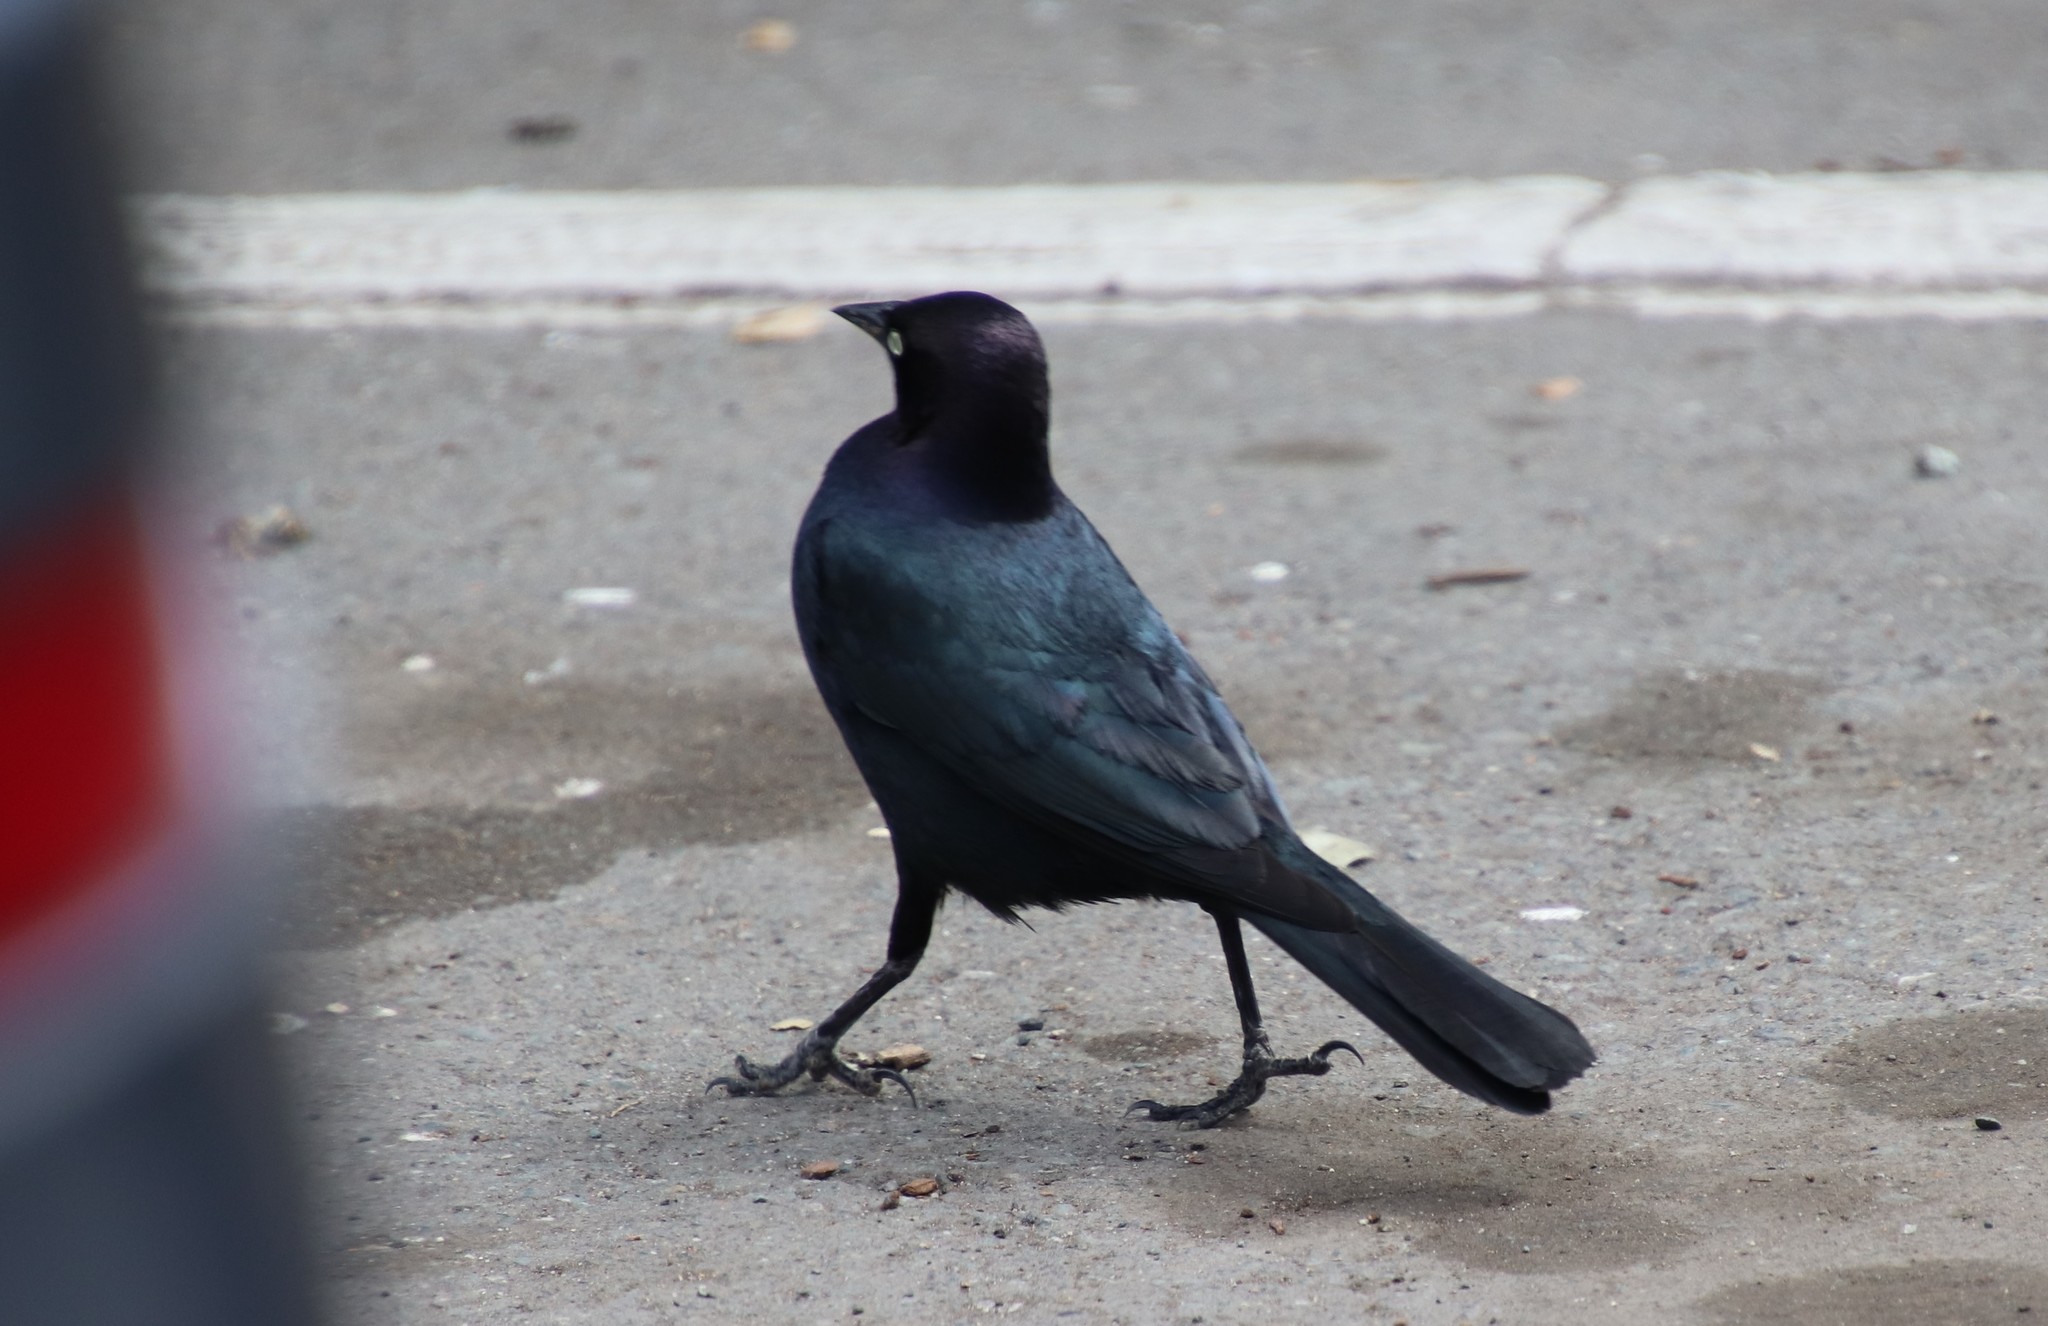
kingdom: Animalia
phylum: Chordata
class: Aves
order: Passeriformes
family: Icteridae
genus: Euphagus
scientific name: Euphagus cyanocephalus
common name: Brewer's blackbird
